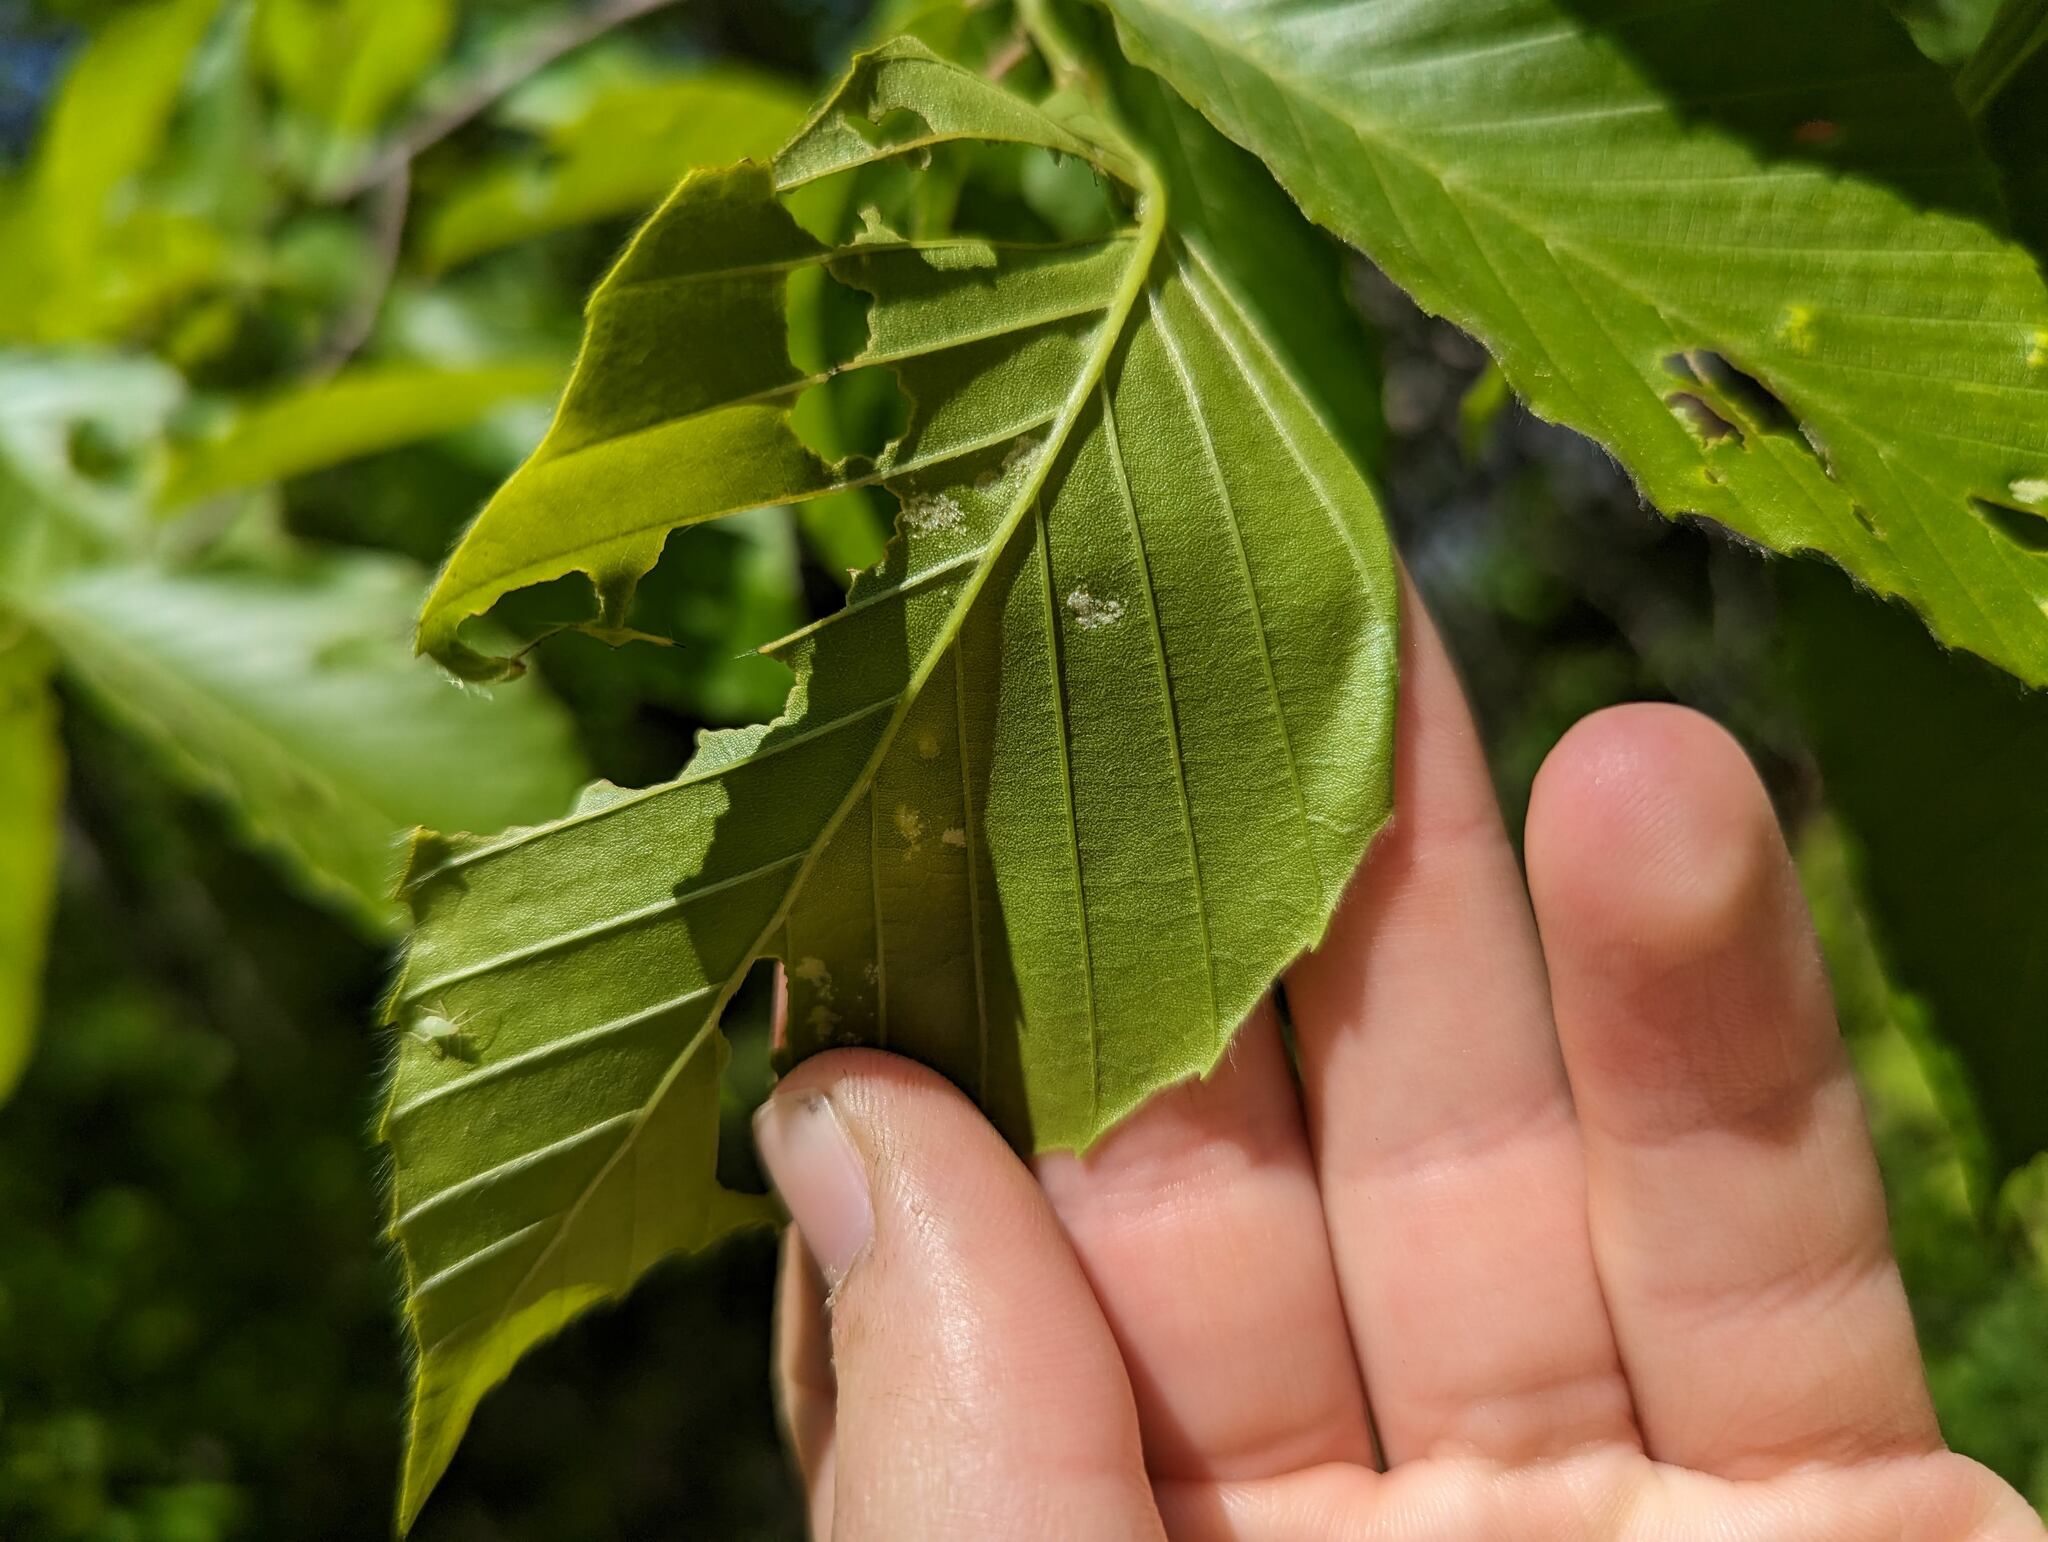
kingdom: Animalia
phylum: Arthropoda
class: Arachnida
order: Trombidiformes
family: Eriophyidae
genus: Acalitus
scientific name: Acalitus
